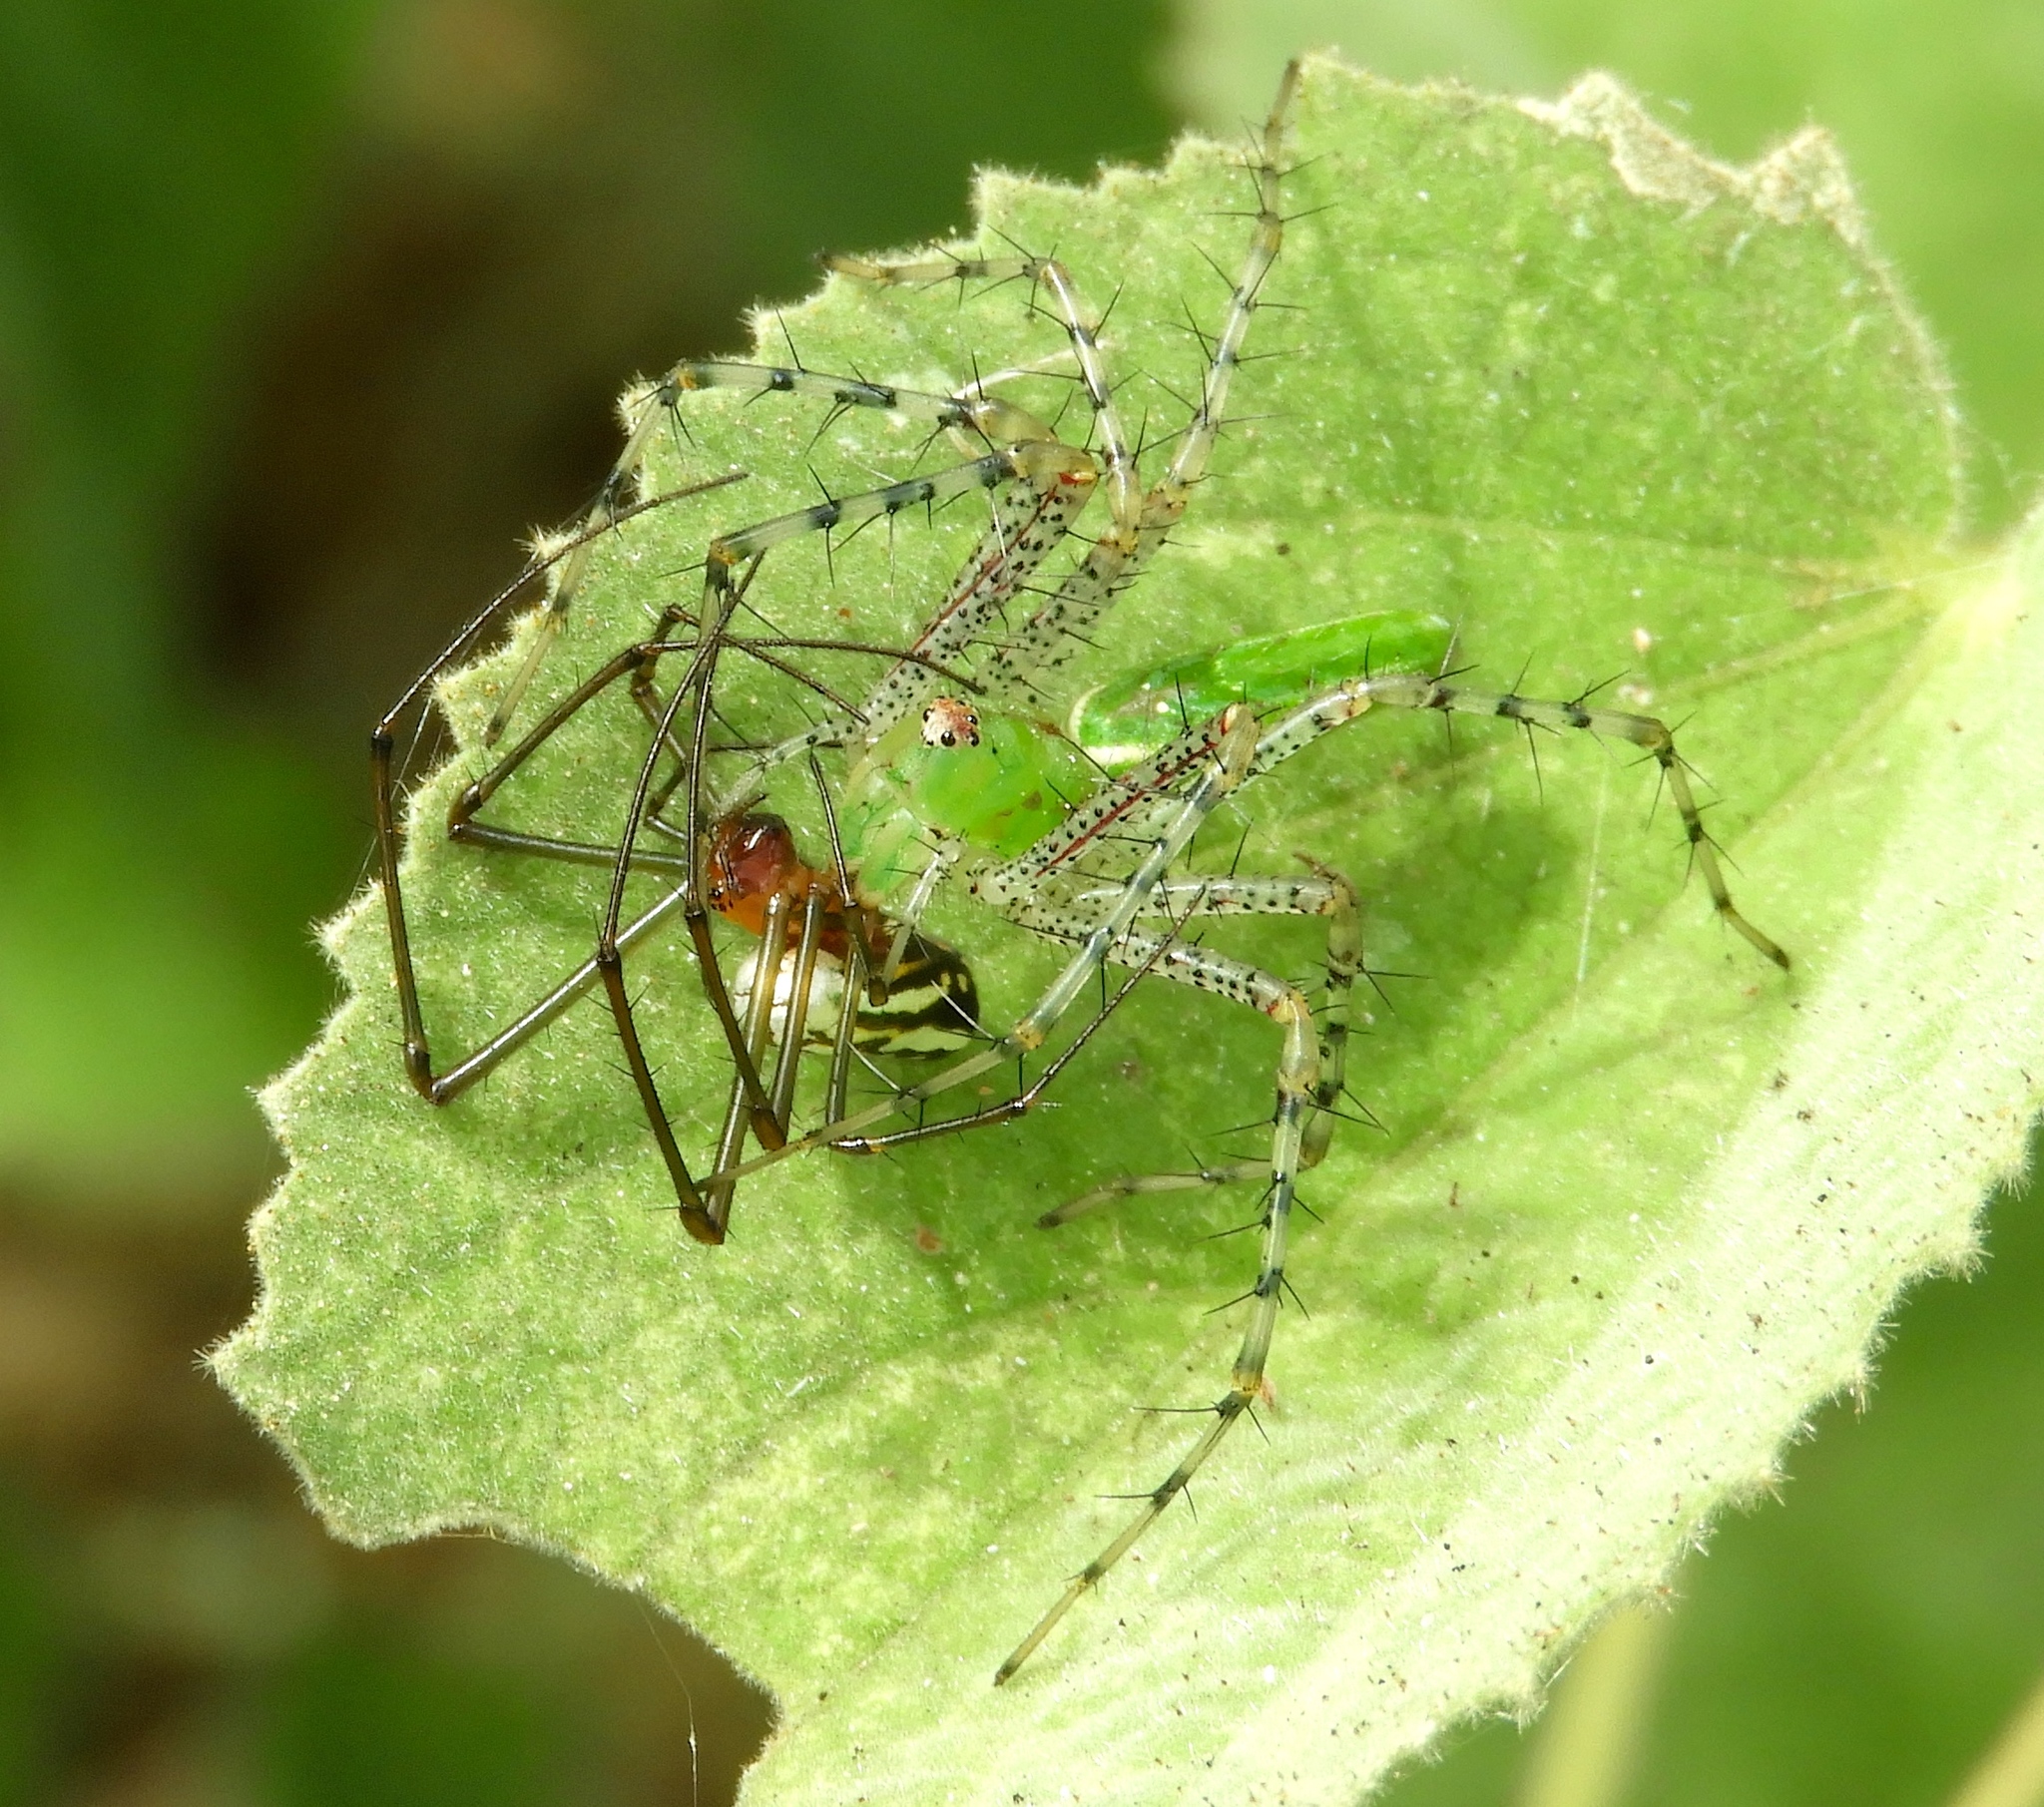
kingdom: Animalia
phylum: Arthropoda
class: Arachnida
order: Araneae
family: Oxyopidae
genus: Peucetia
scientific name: Peucetia
